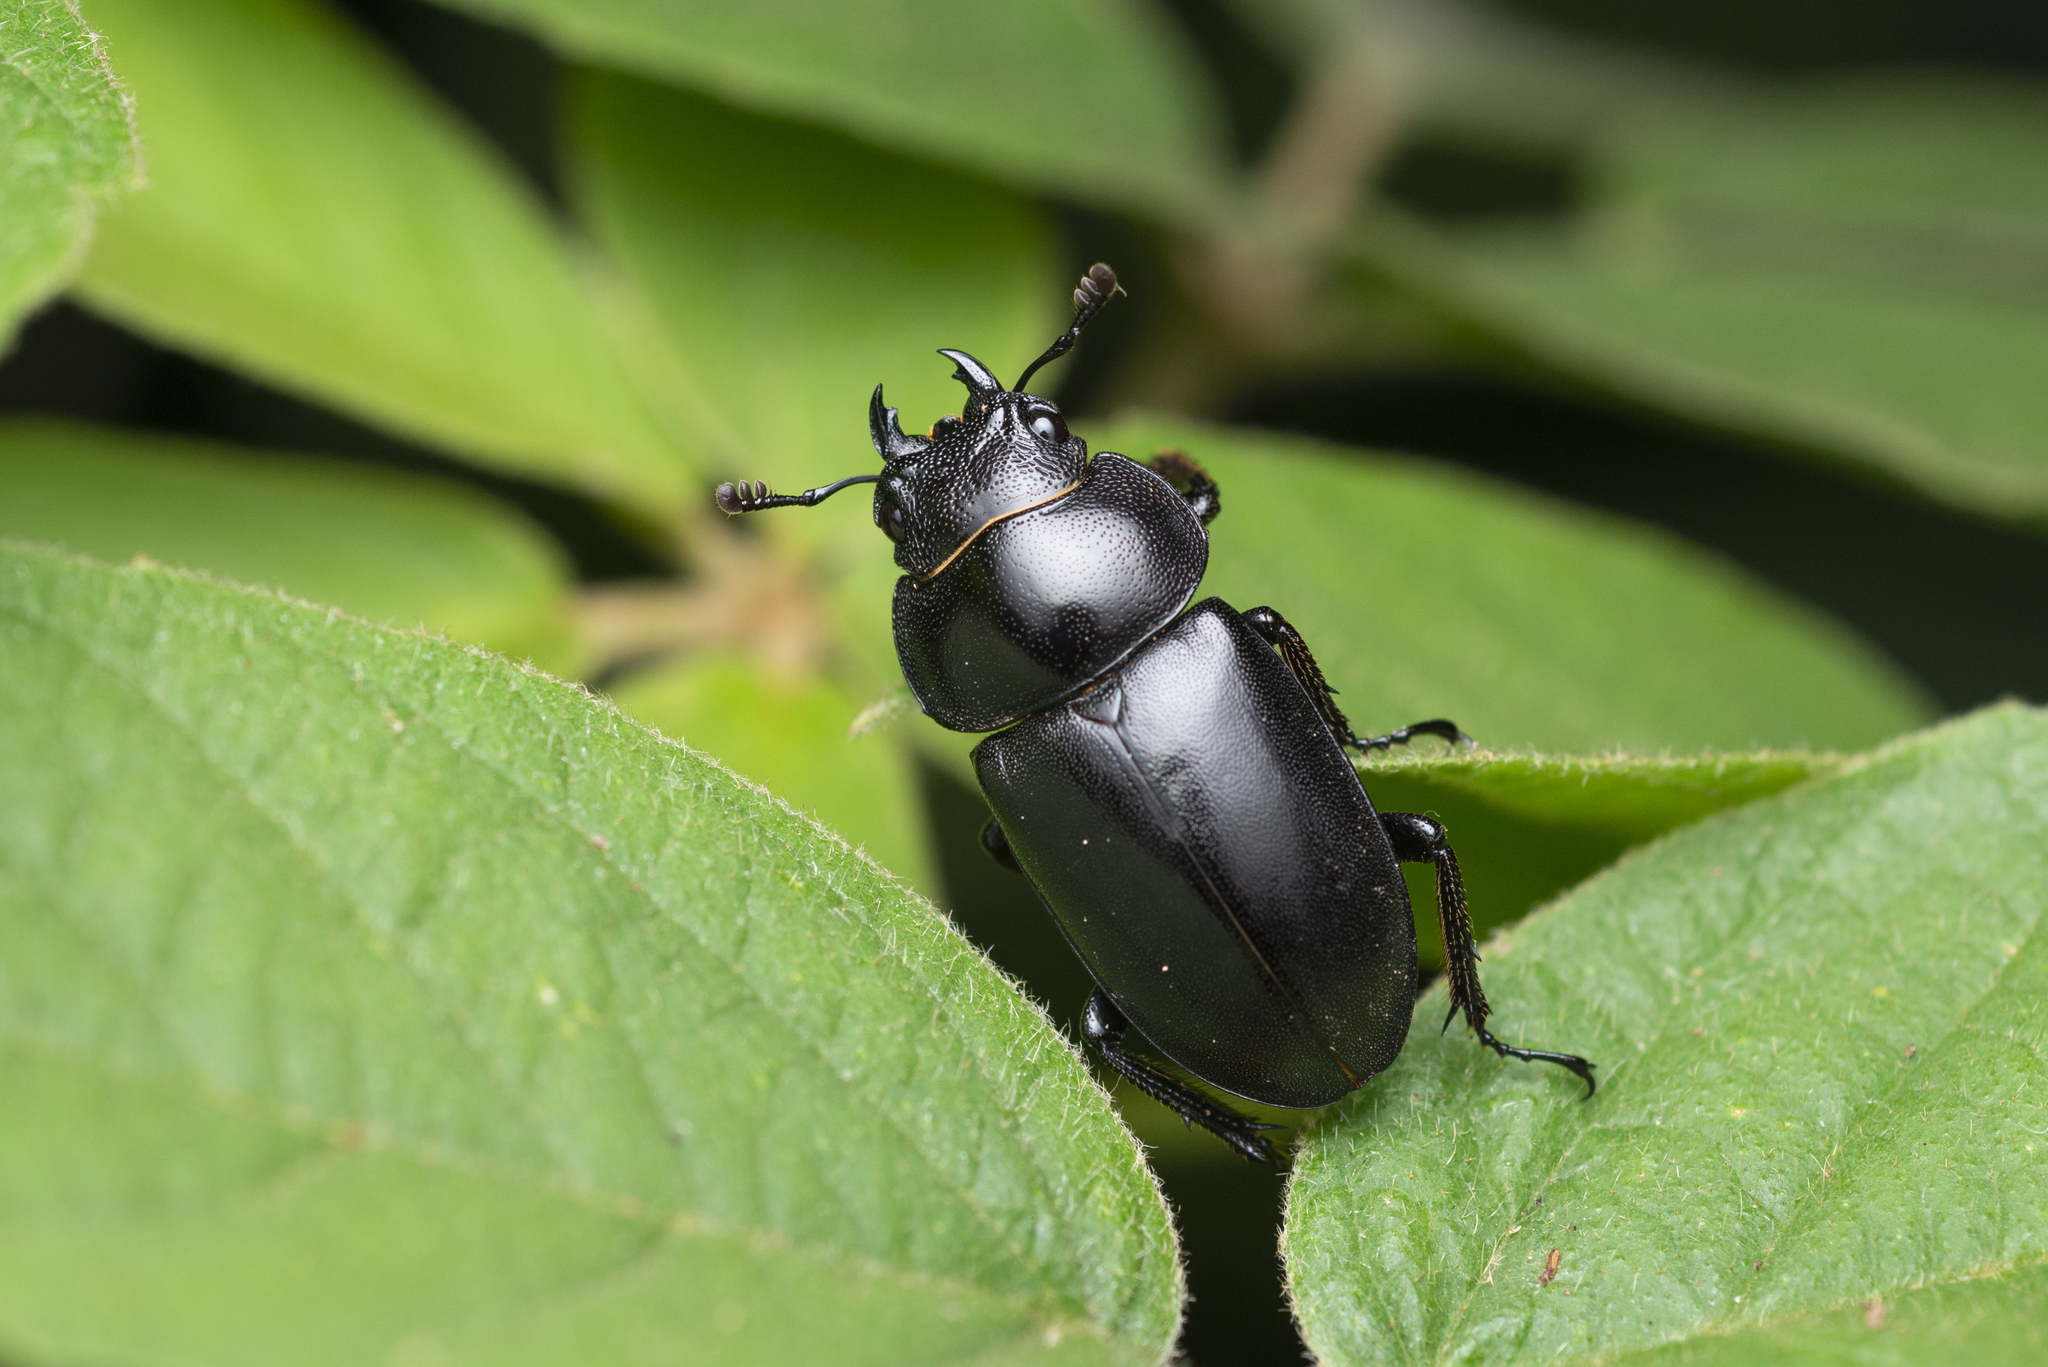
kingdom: Animalia
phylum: Arthropoda
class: Insecta
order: Coleoptera
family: Lucanidae
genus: Prosopocoilus
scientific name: Prosopocoilus oweni
